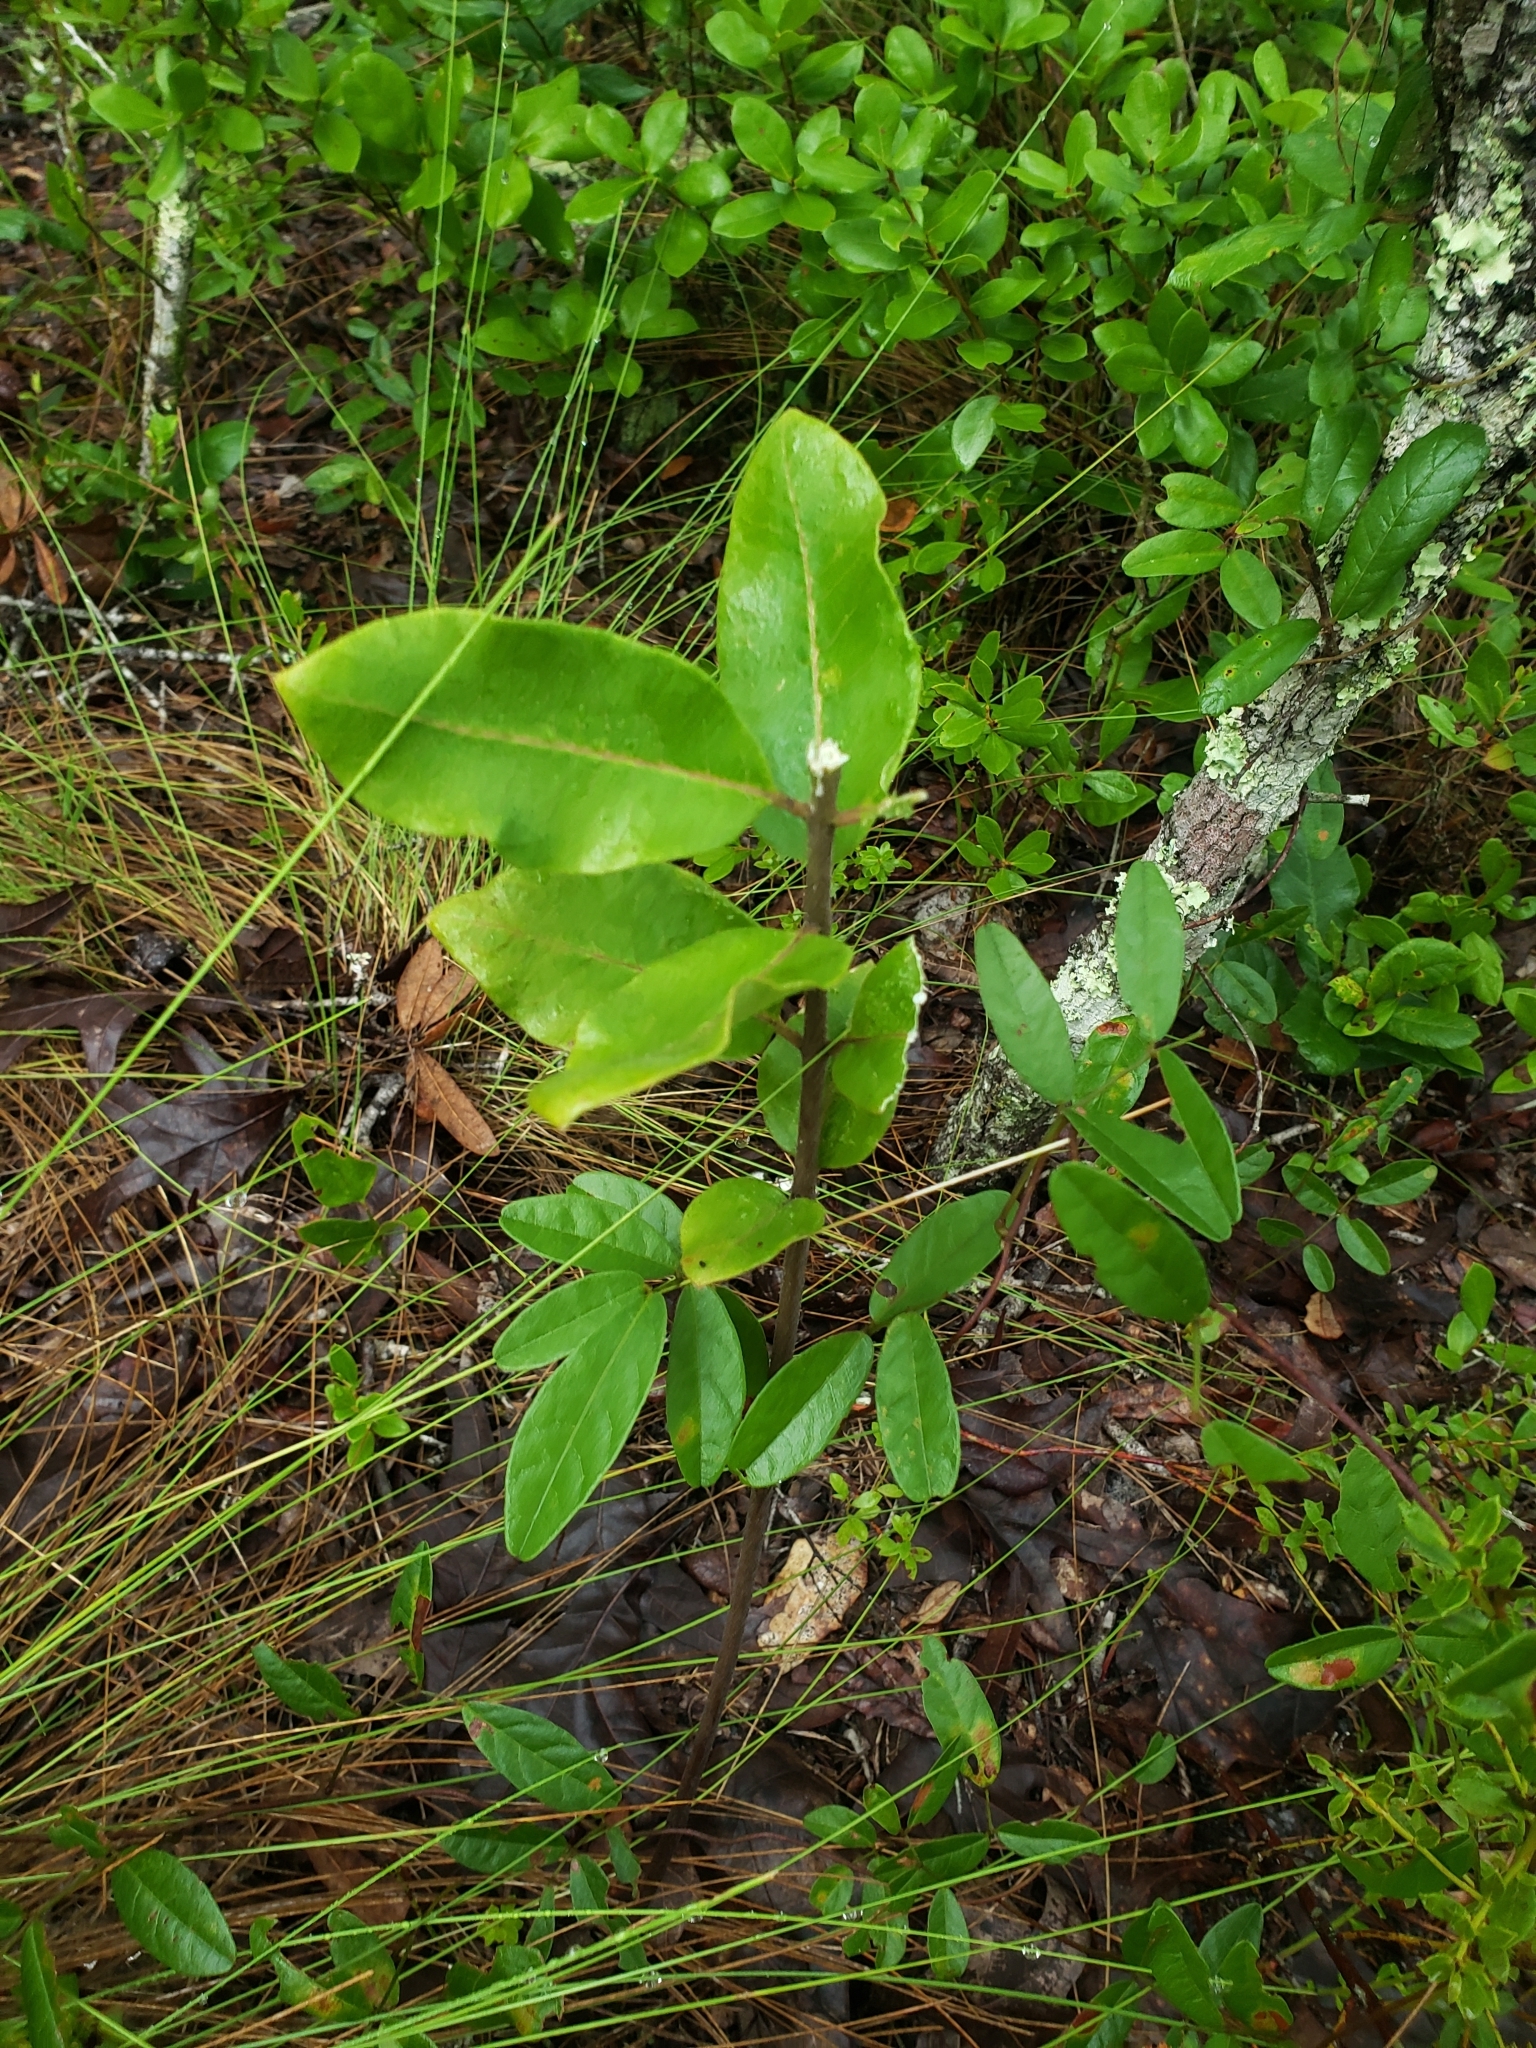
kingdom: Plantae
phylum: Tracheophyta
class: Magnoliopsida
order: Gentianales
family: Apocynaceae
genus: Asclepias
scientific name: Asclepias tomentosa
